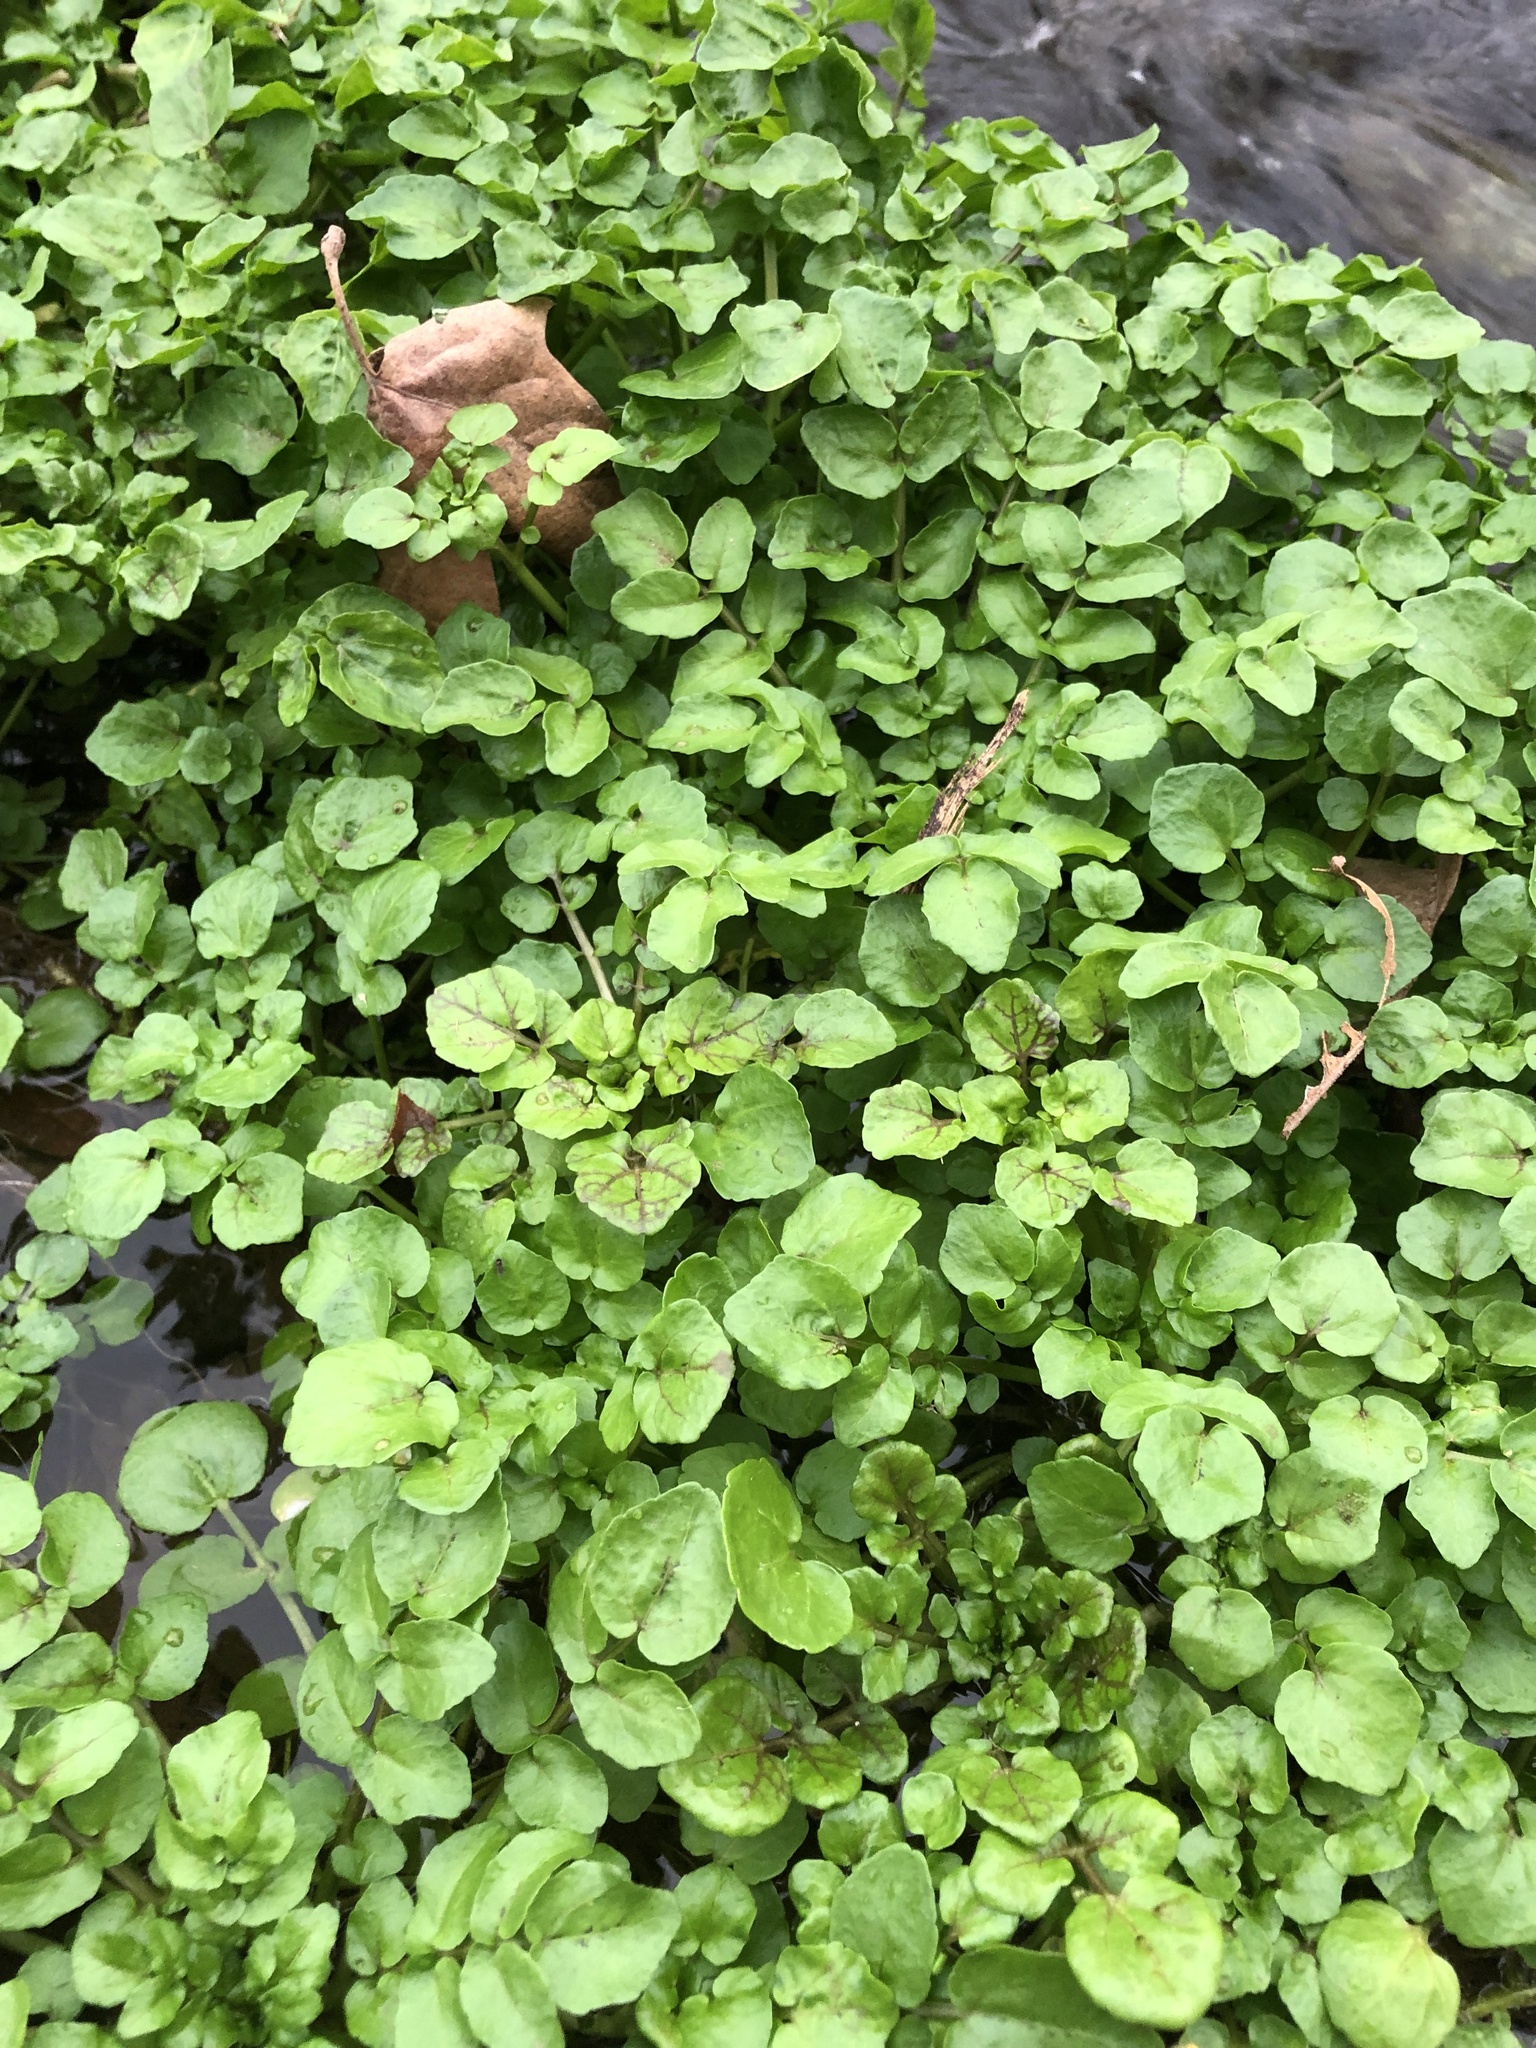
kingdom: Plantae
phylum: Tracheophyta
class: Magnoliopsida
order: Brassicales
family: Brassicaceae
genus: Nasturtium
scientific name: Nasturtium officinale
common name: Watercress
